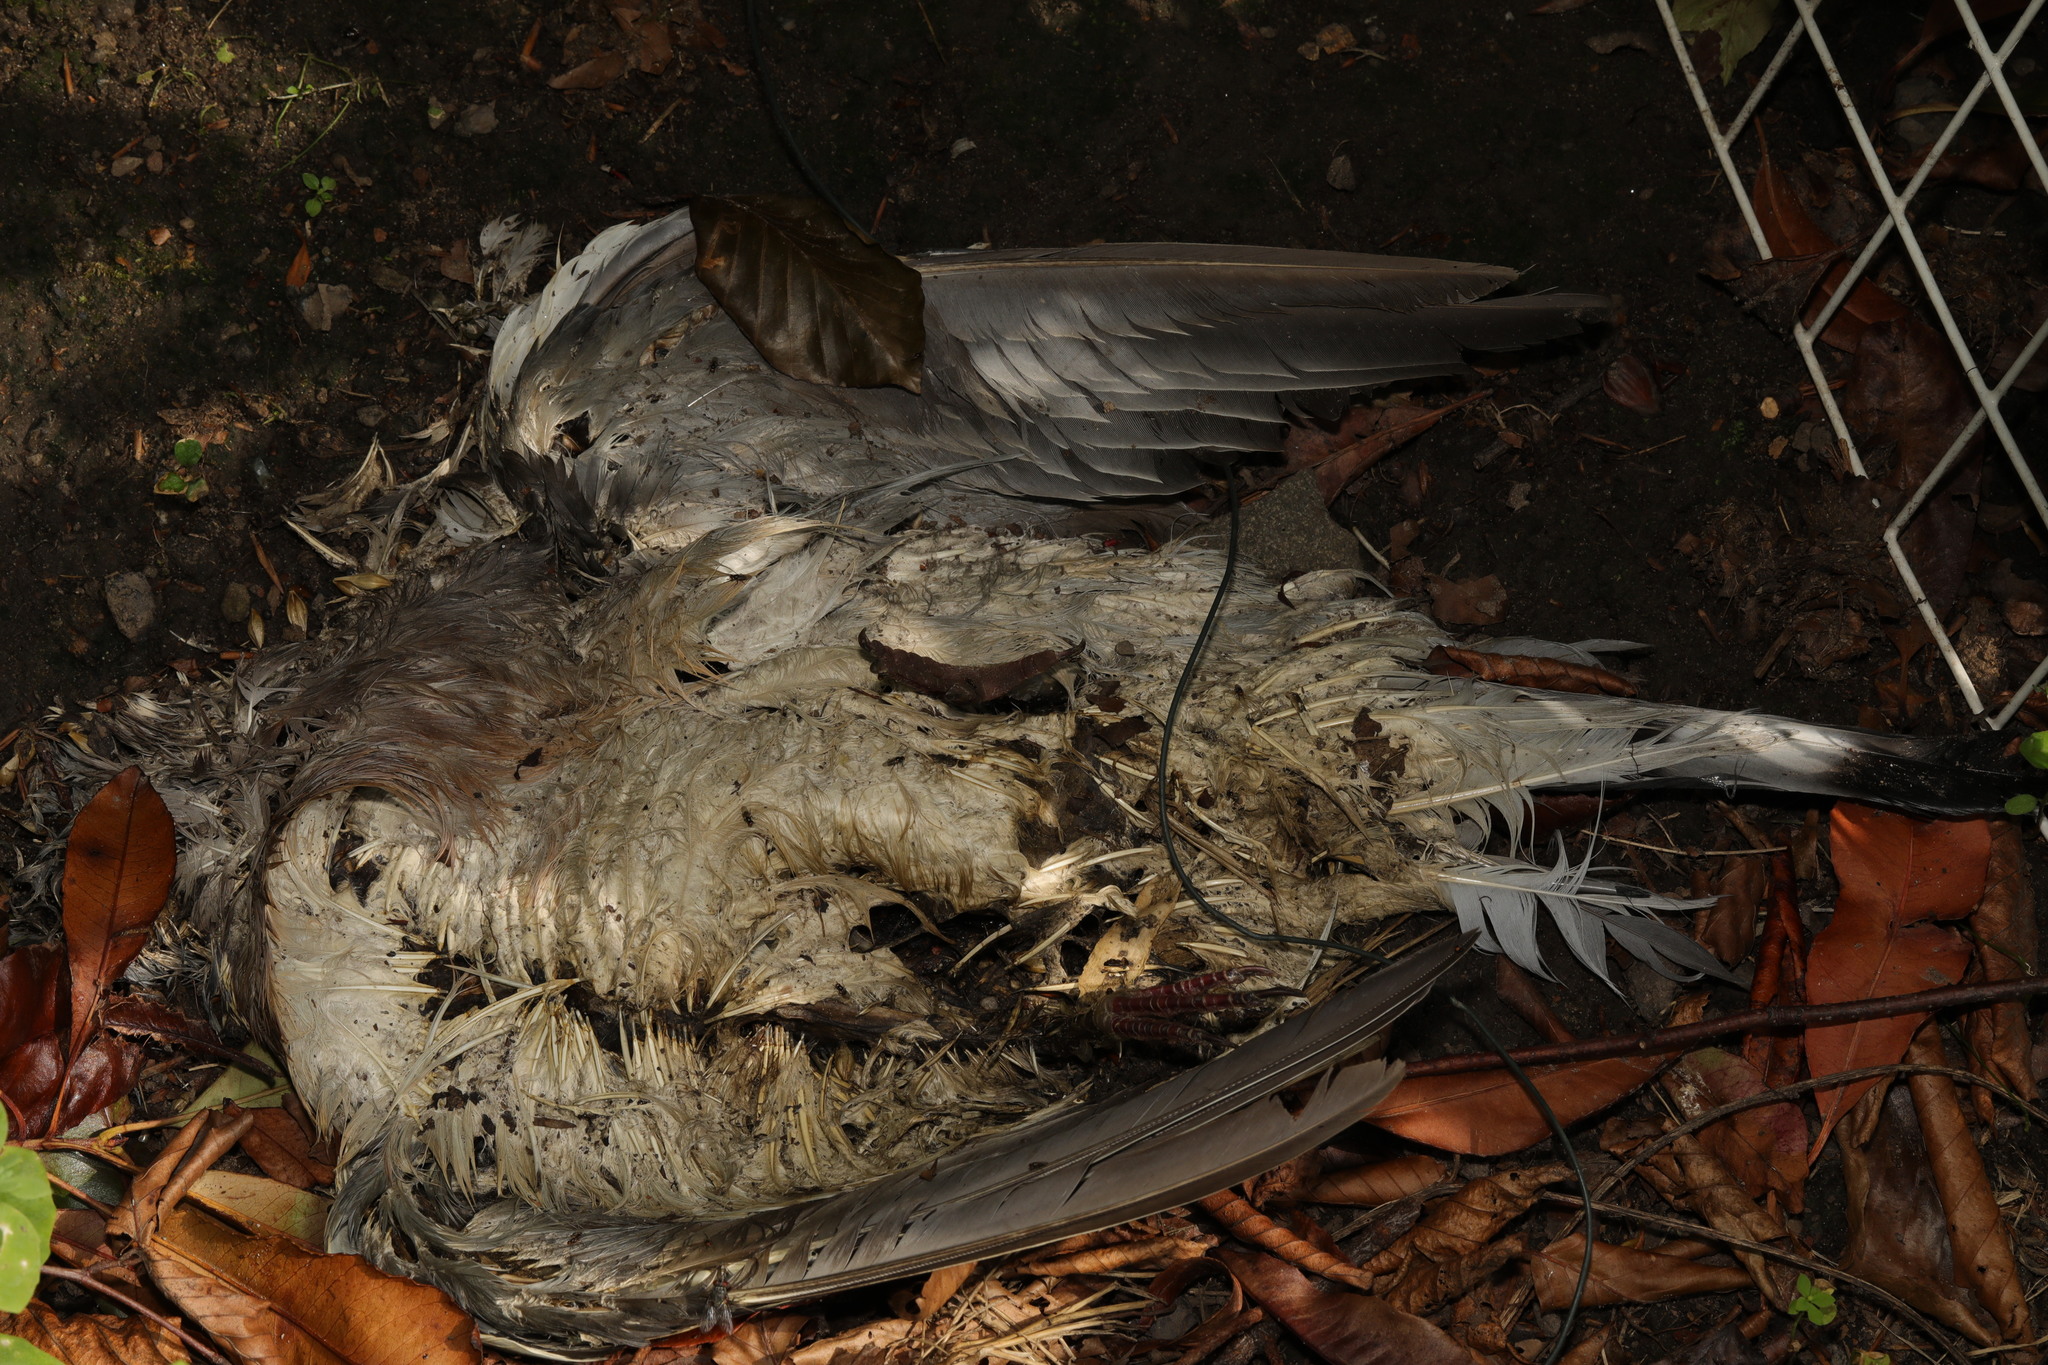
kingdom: Animalia
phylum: Chordata
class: Aves
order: Columbiformes
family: Columbidae
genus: Columba
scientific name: Columba palumbus
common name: Common wood pigeon
